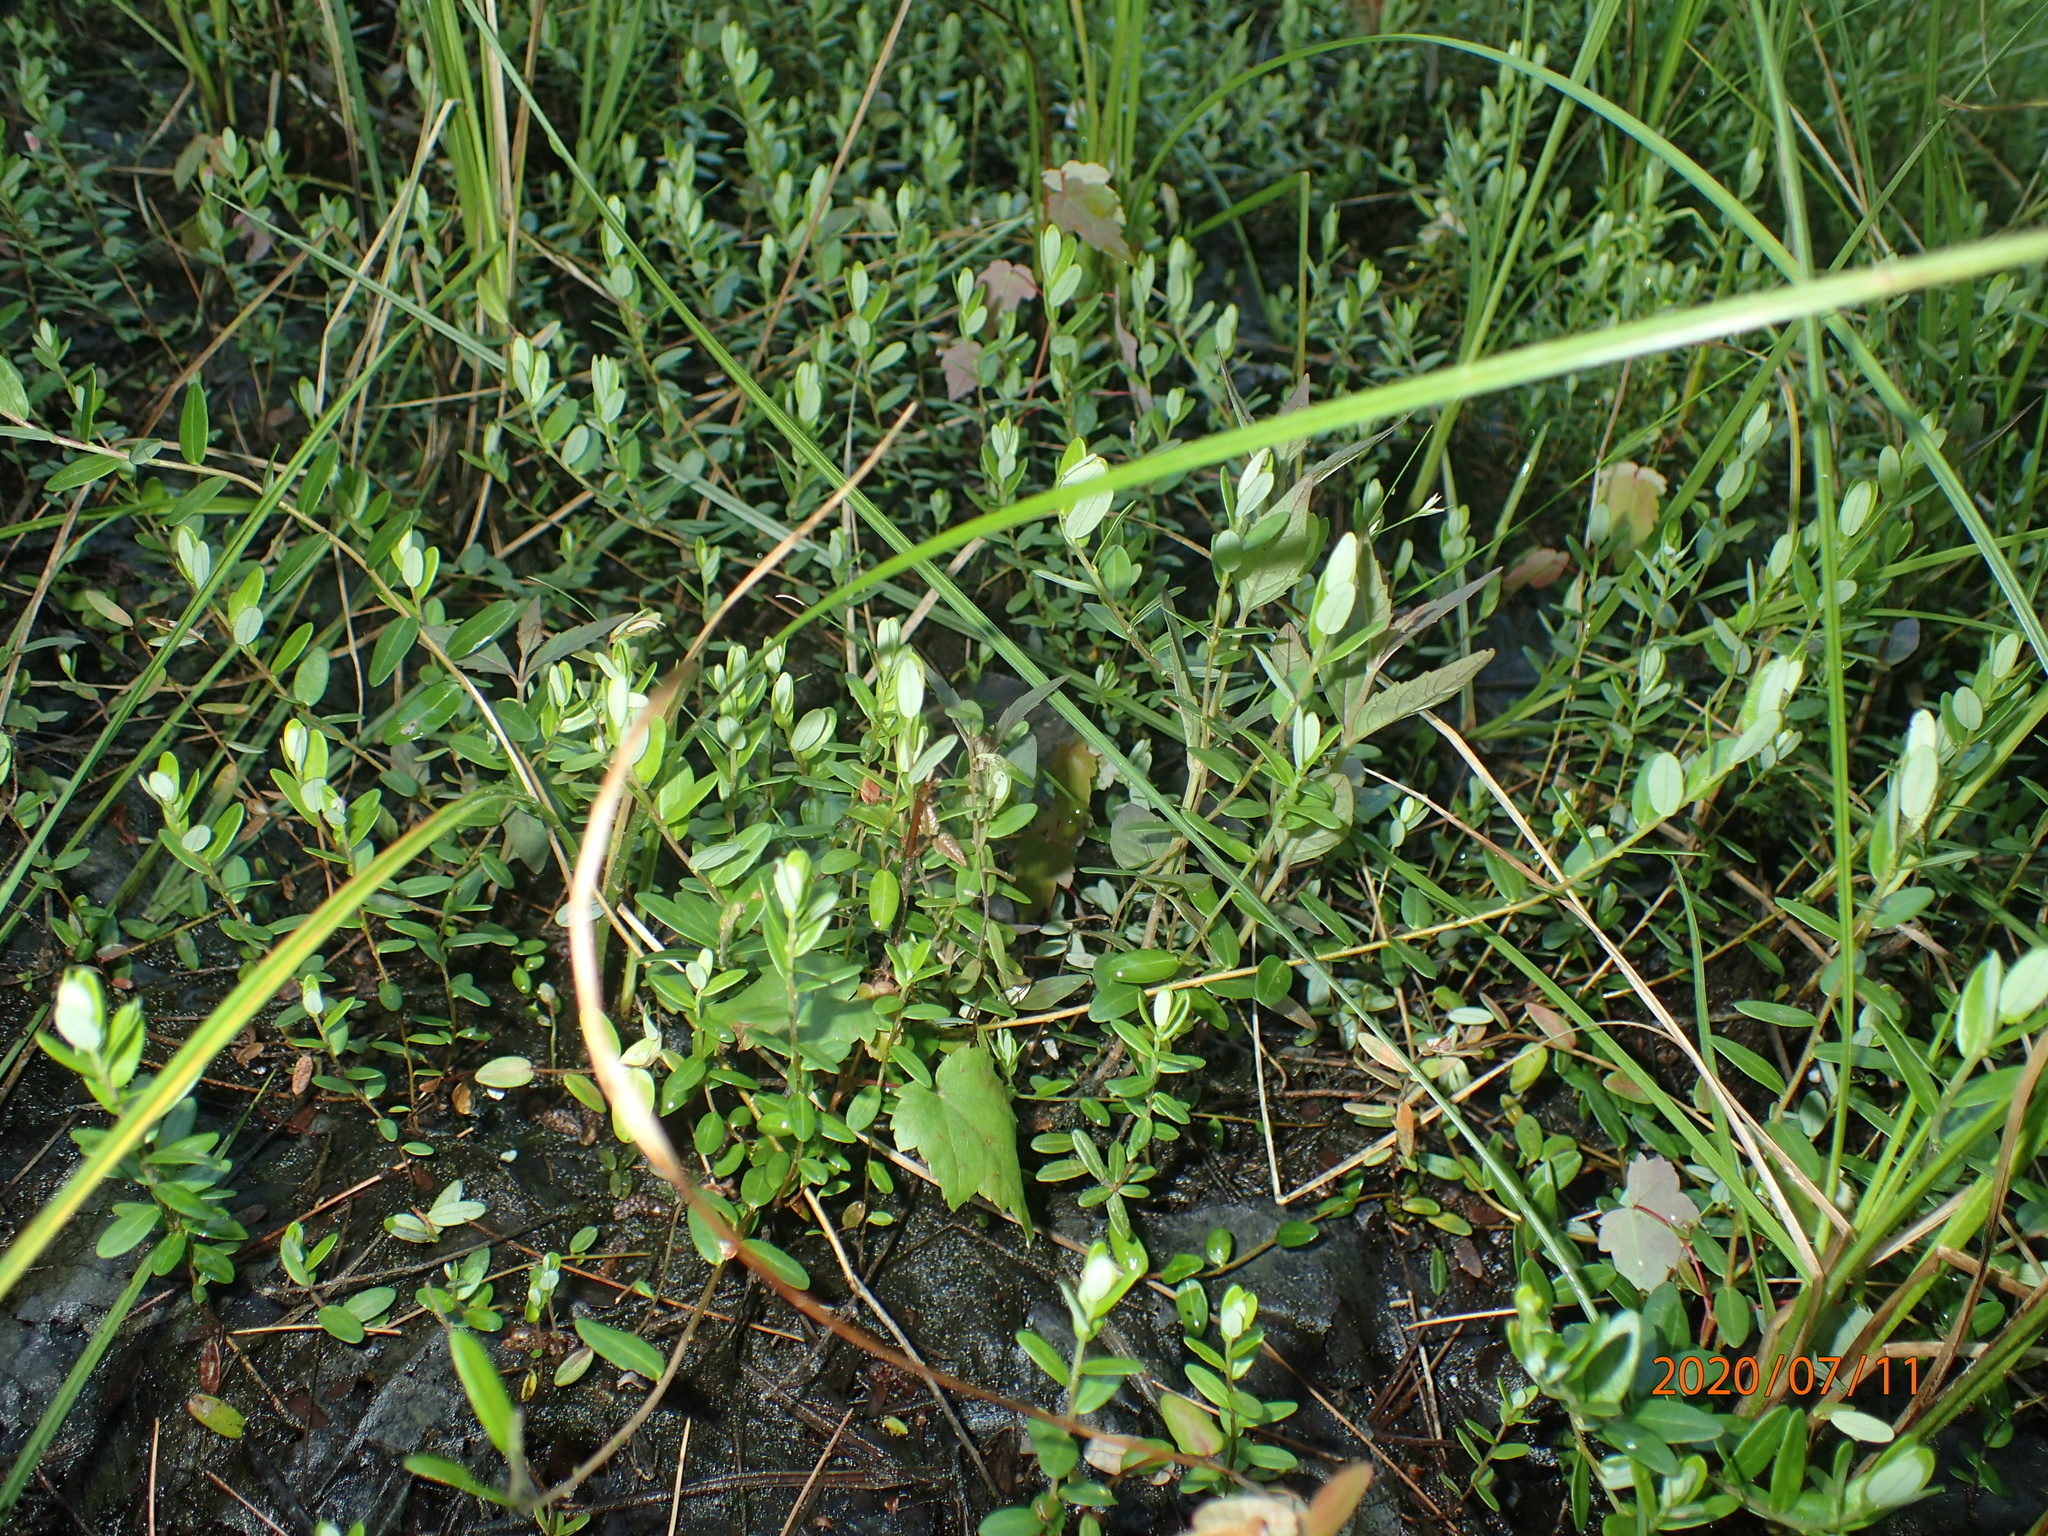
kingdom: Plantae
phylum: Tracheophyta
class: Magnoliopsida
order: Ericales
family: Ericaceae
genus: Vaccinium
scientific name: Vaccinium macrocarpon
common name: American cranberry
